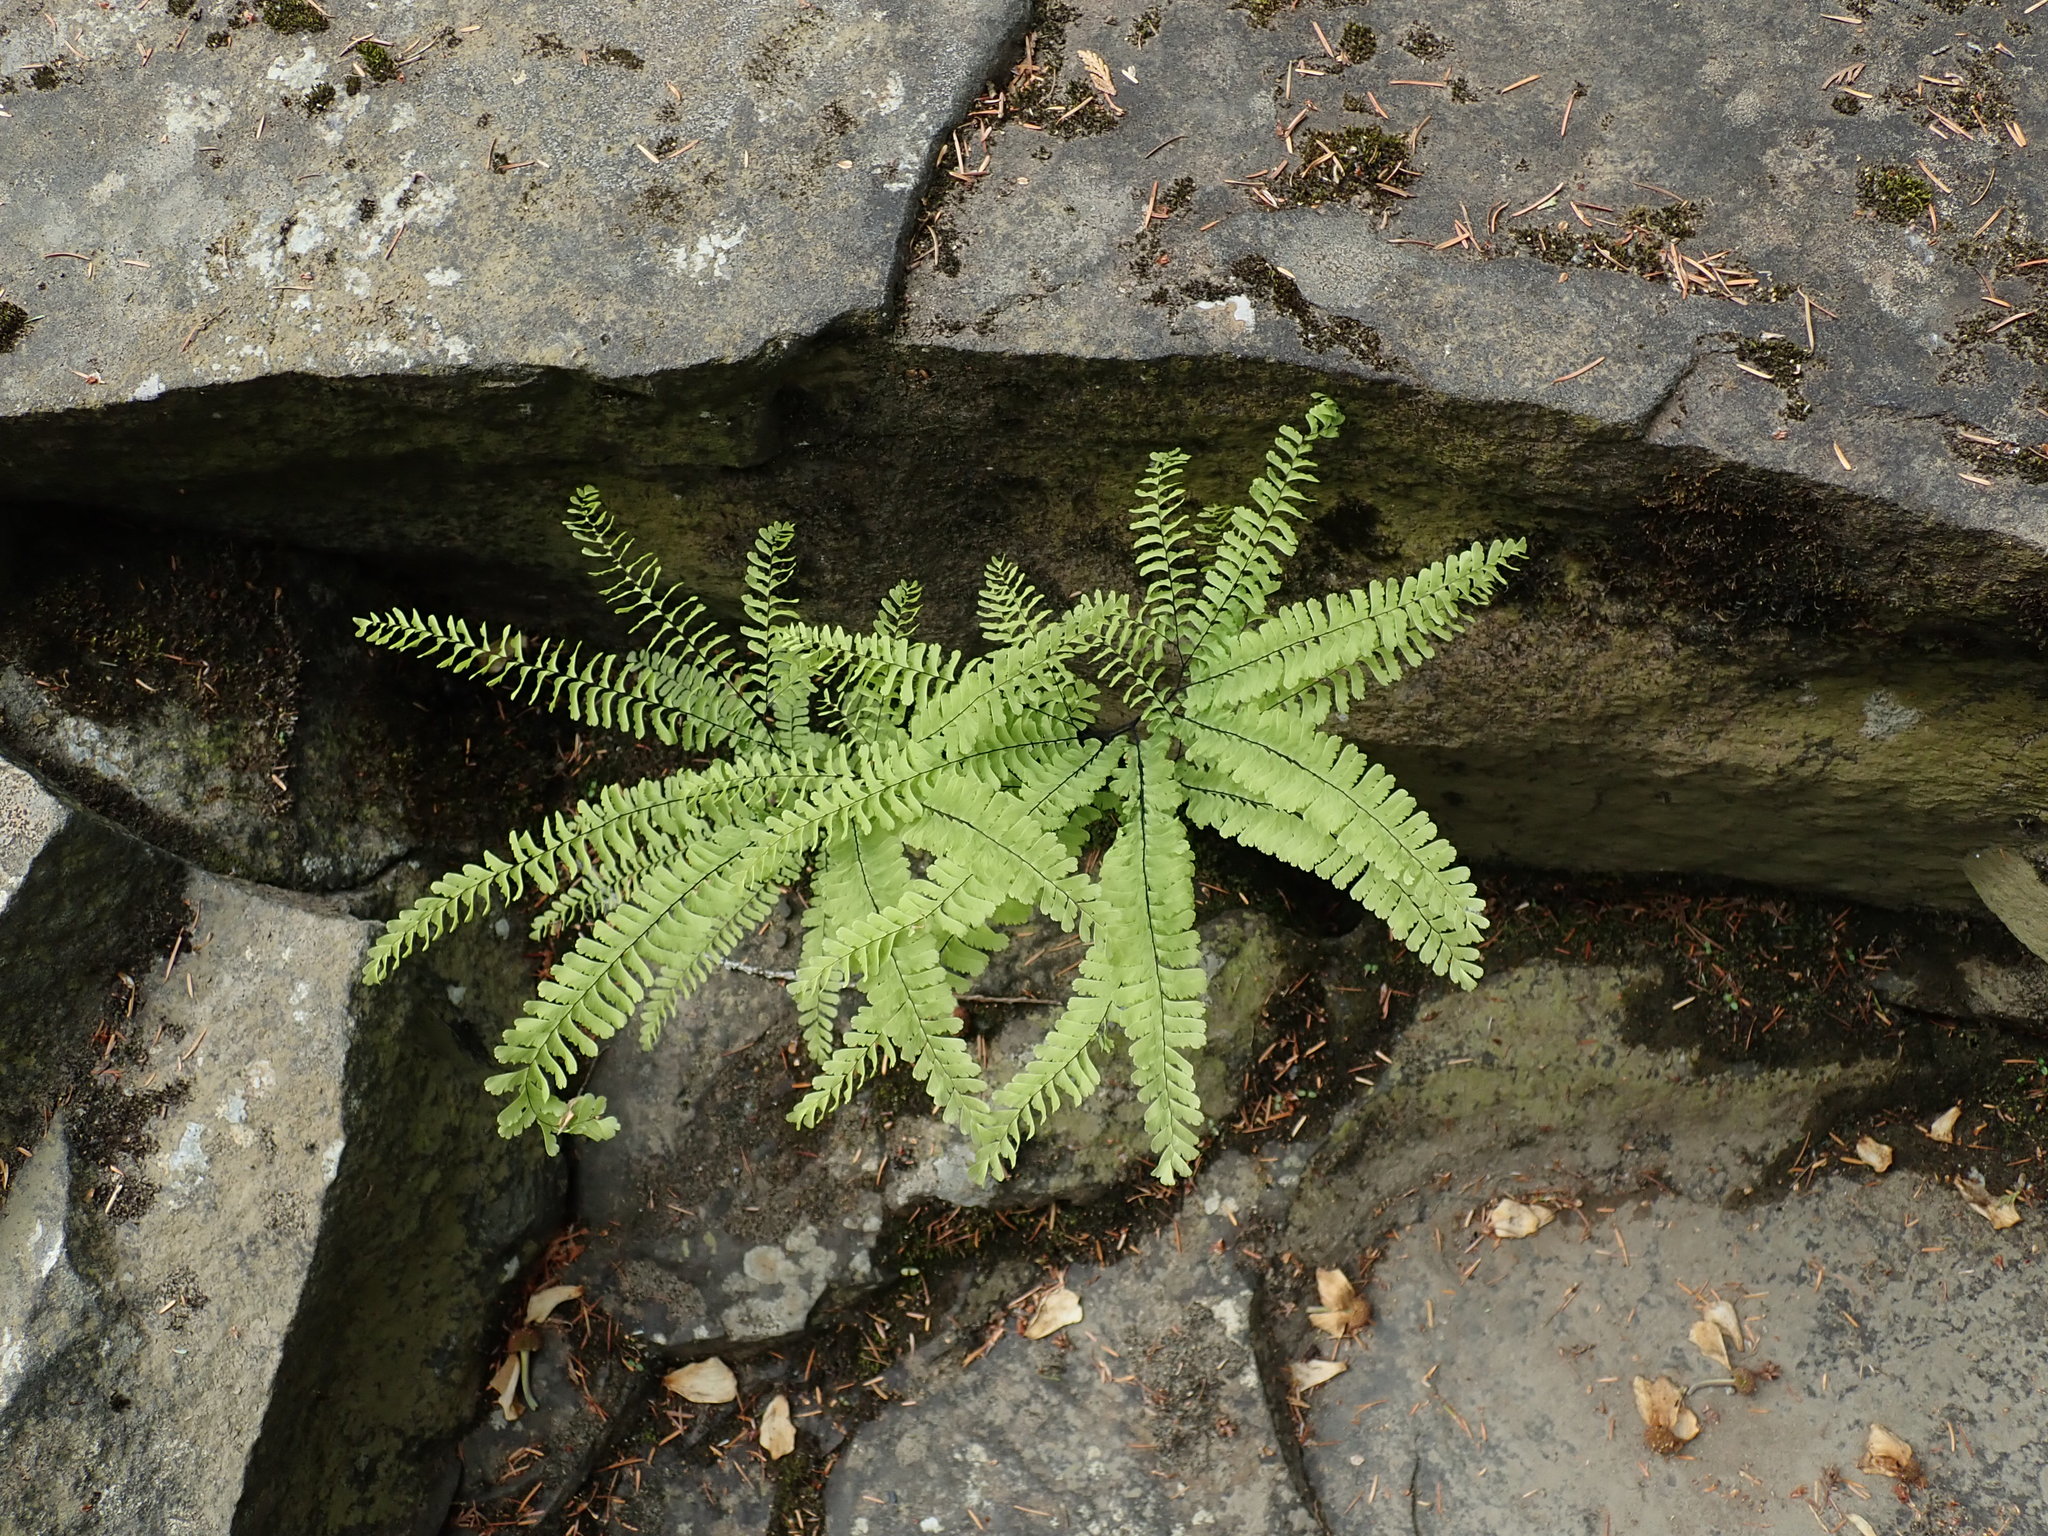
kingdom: Plantae
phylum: Tracheophyta
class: Polypodiopsida
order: Polypodiales
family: Pteridaceae
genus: Adiantum
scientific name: Adiantum aleuticum
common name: Aleutian maidenhair fern
